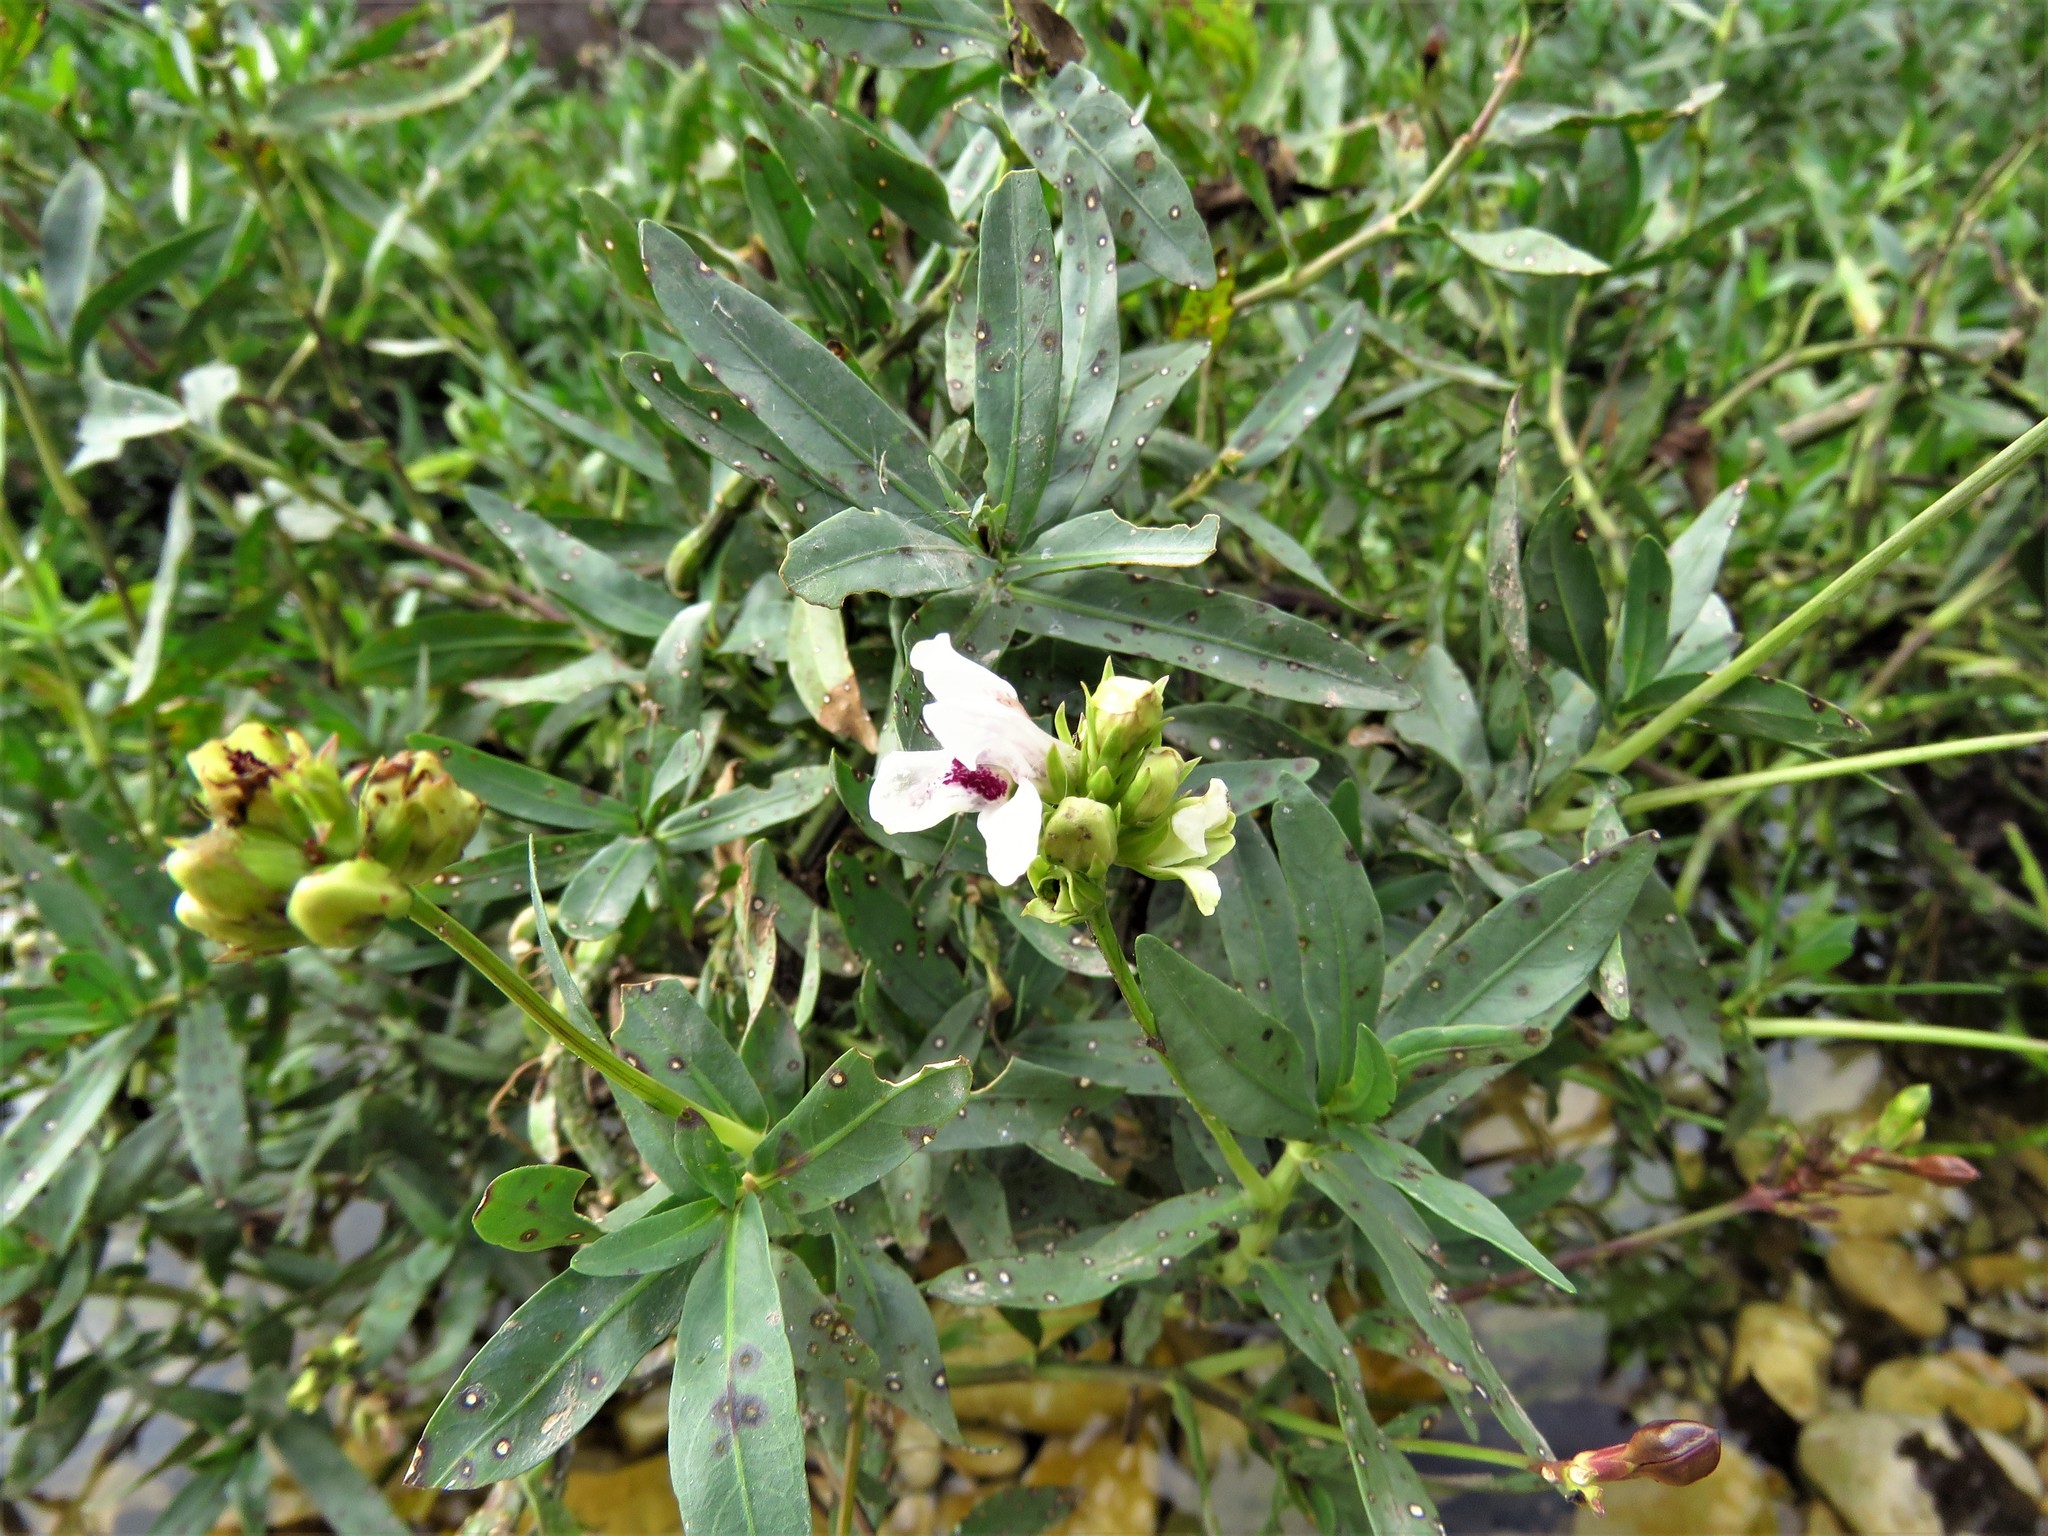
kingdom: Plantae
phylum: Tracheophyta
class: Magnoliopsida
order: Lamiales
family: Acanthaceae
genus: Dianthera
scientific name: Dianthera americana
